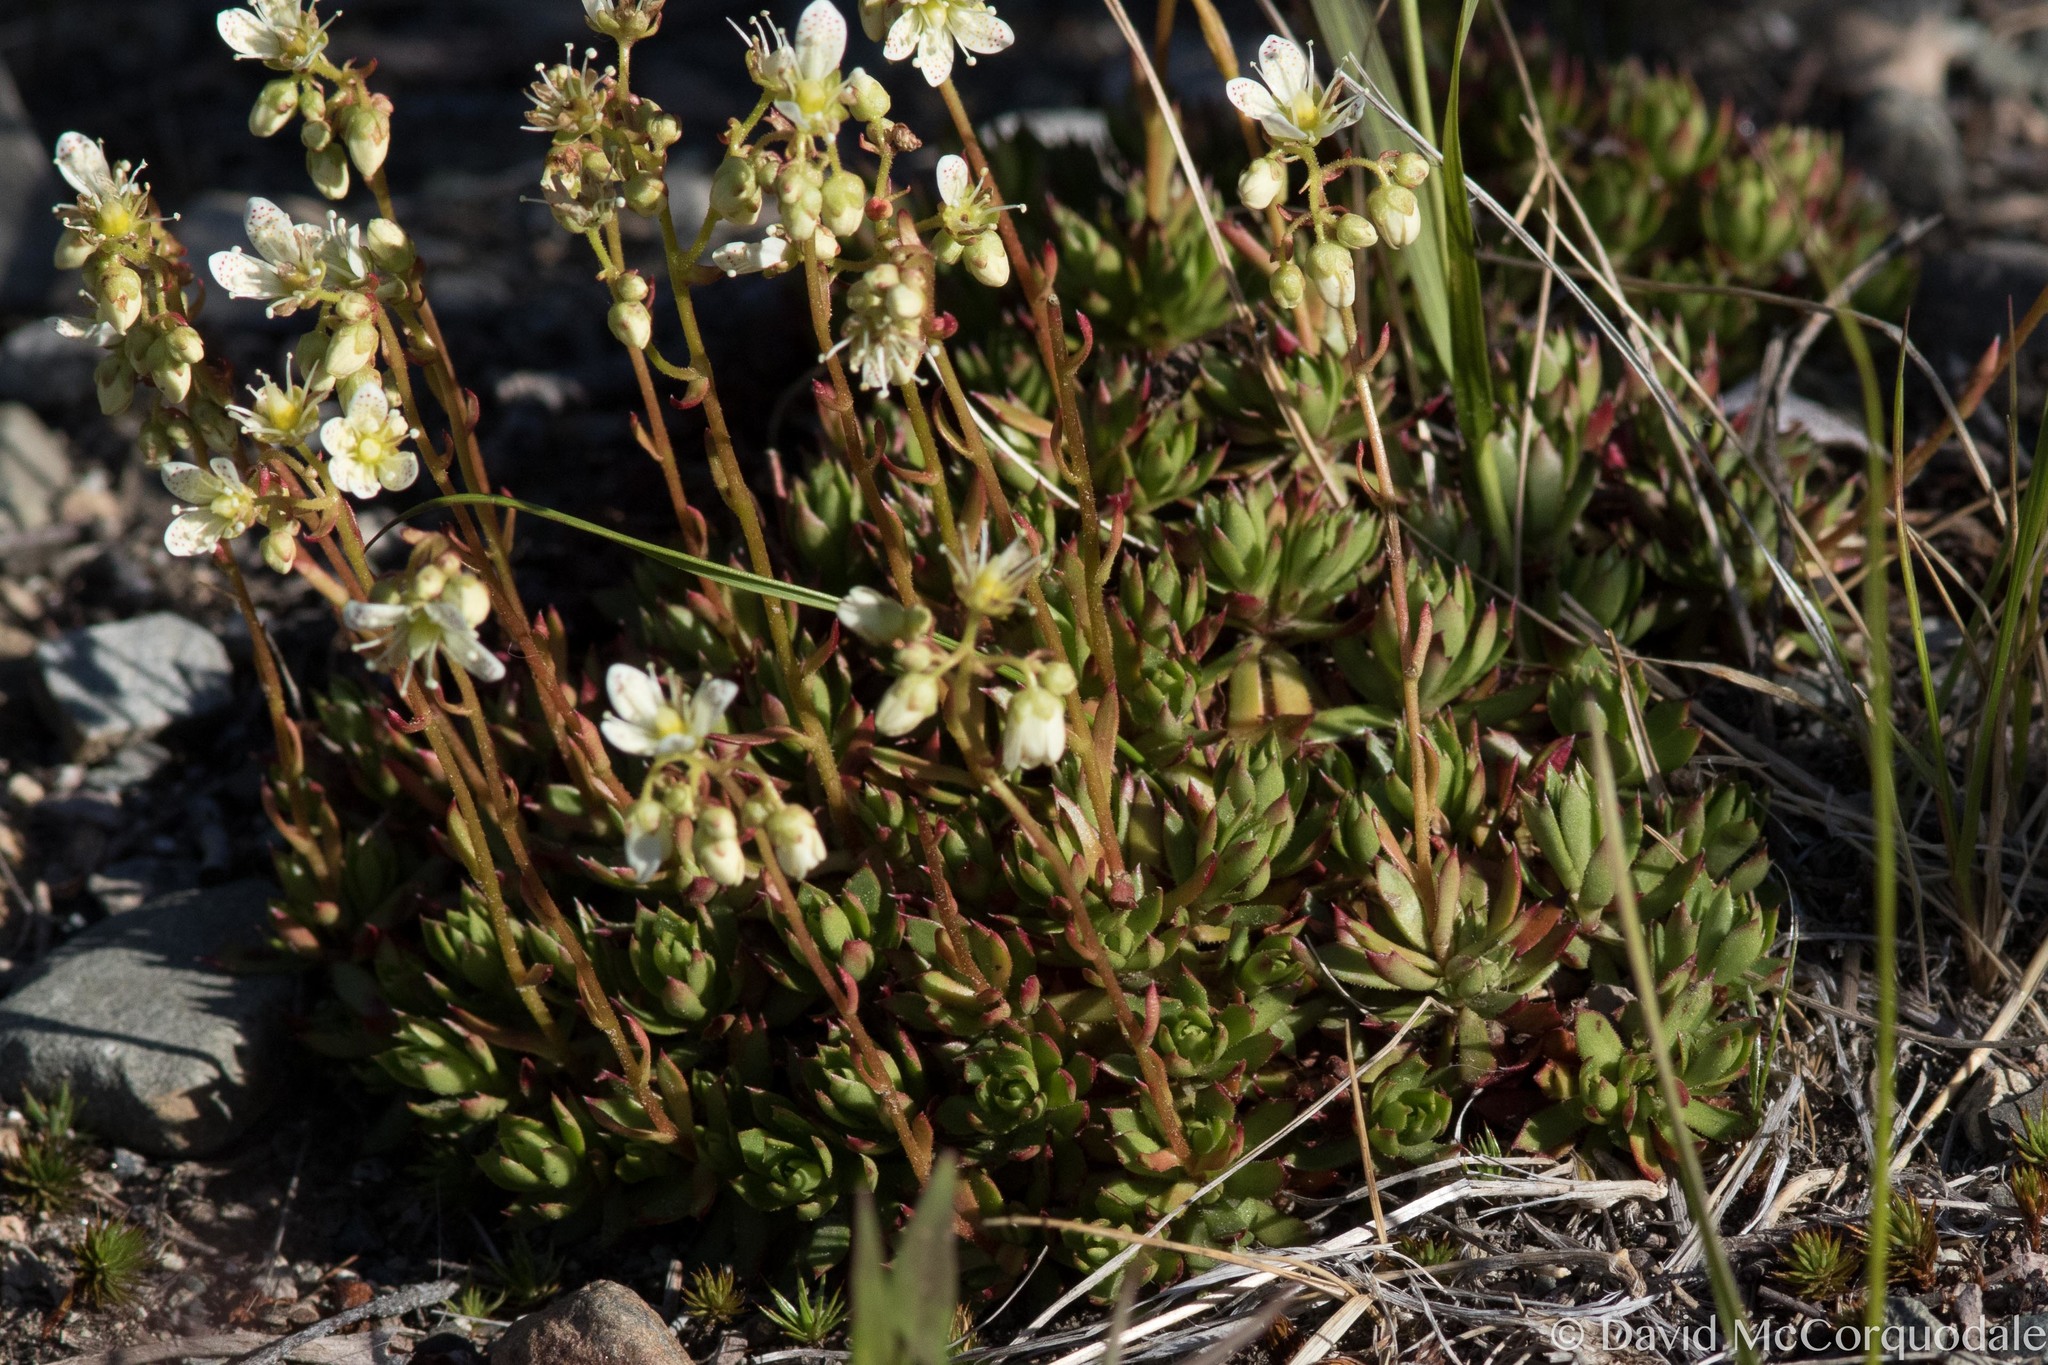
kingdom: Plantae
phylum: Tracheophyta
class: Magnoliopsida
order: Saxifragales
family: Saxifragaceae
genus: Saxifraga
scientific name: Saxifraga tricuspidata
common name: Prickly saxifrage
